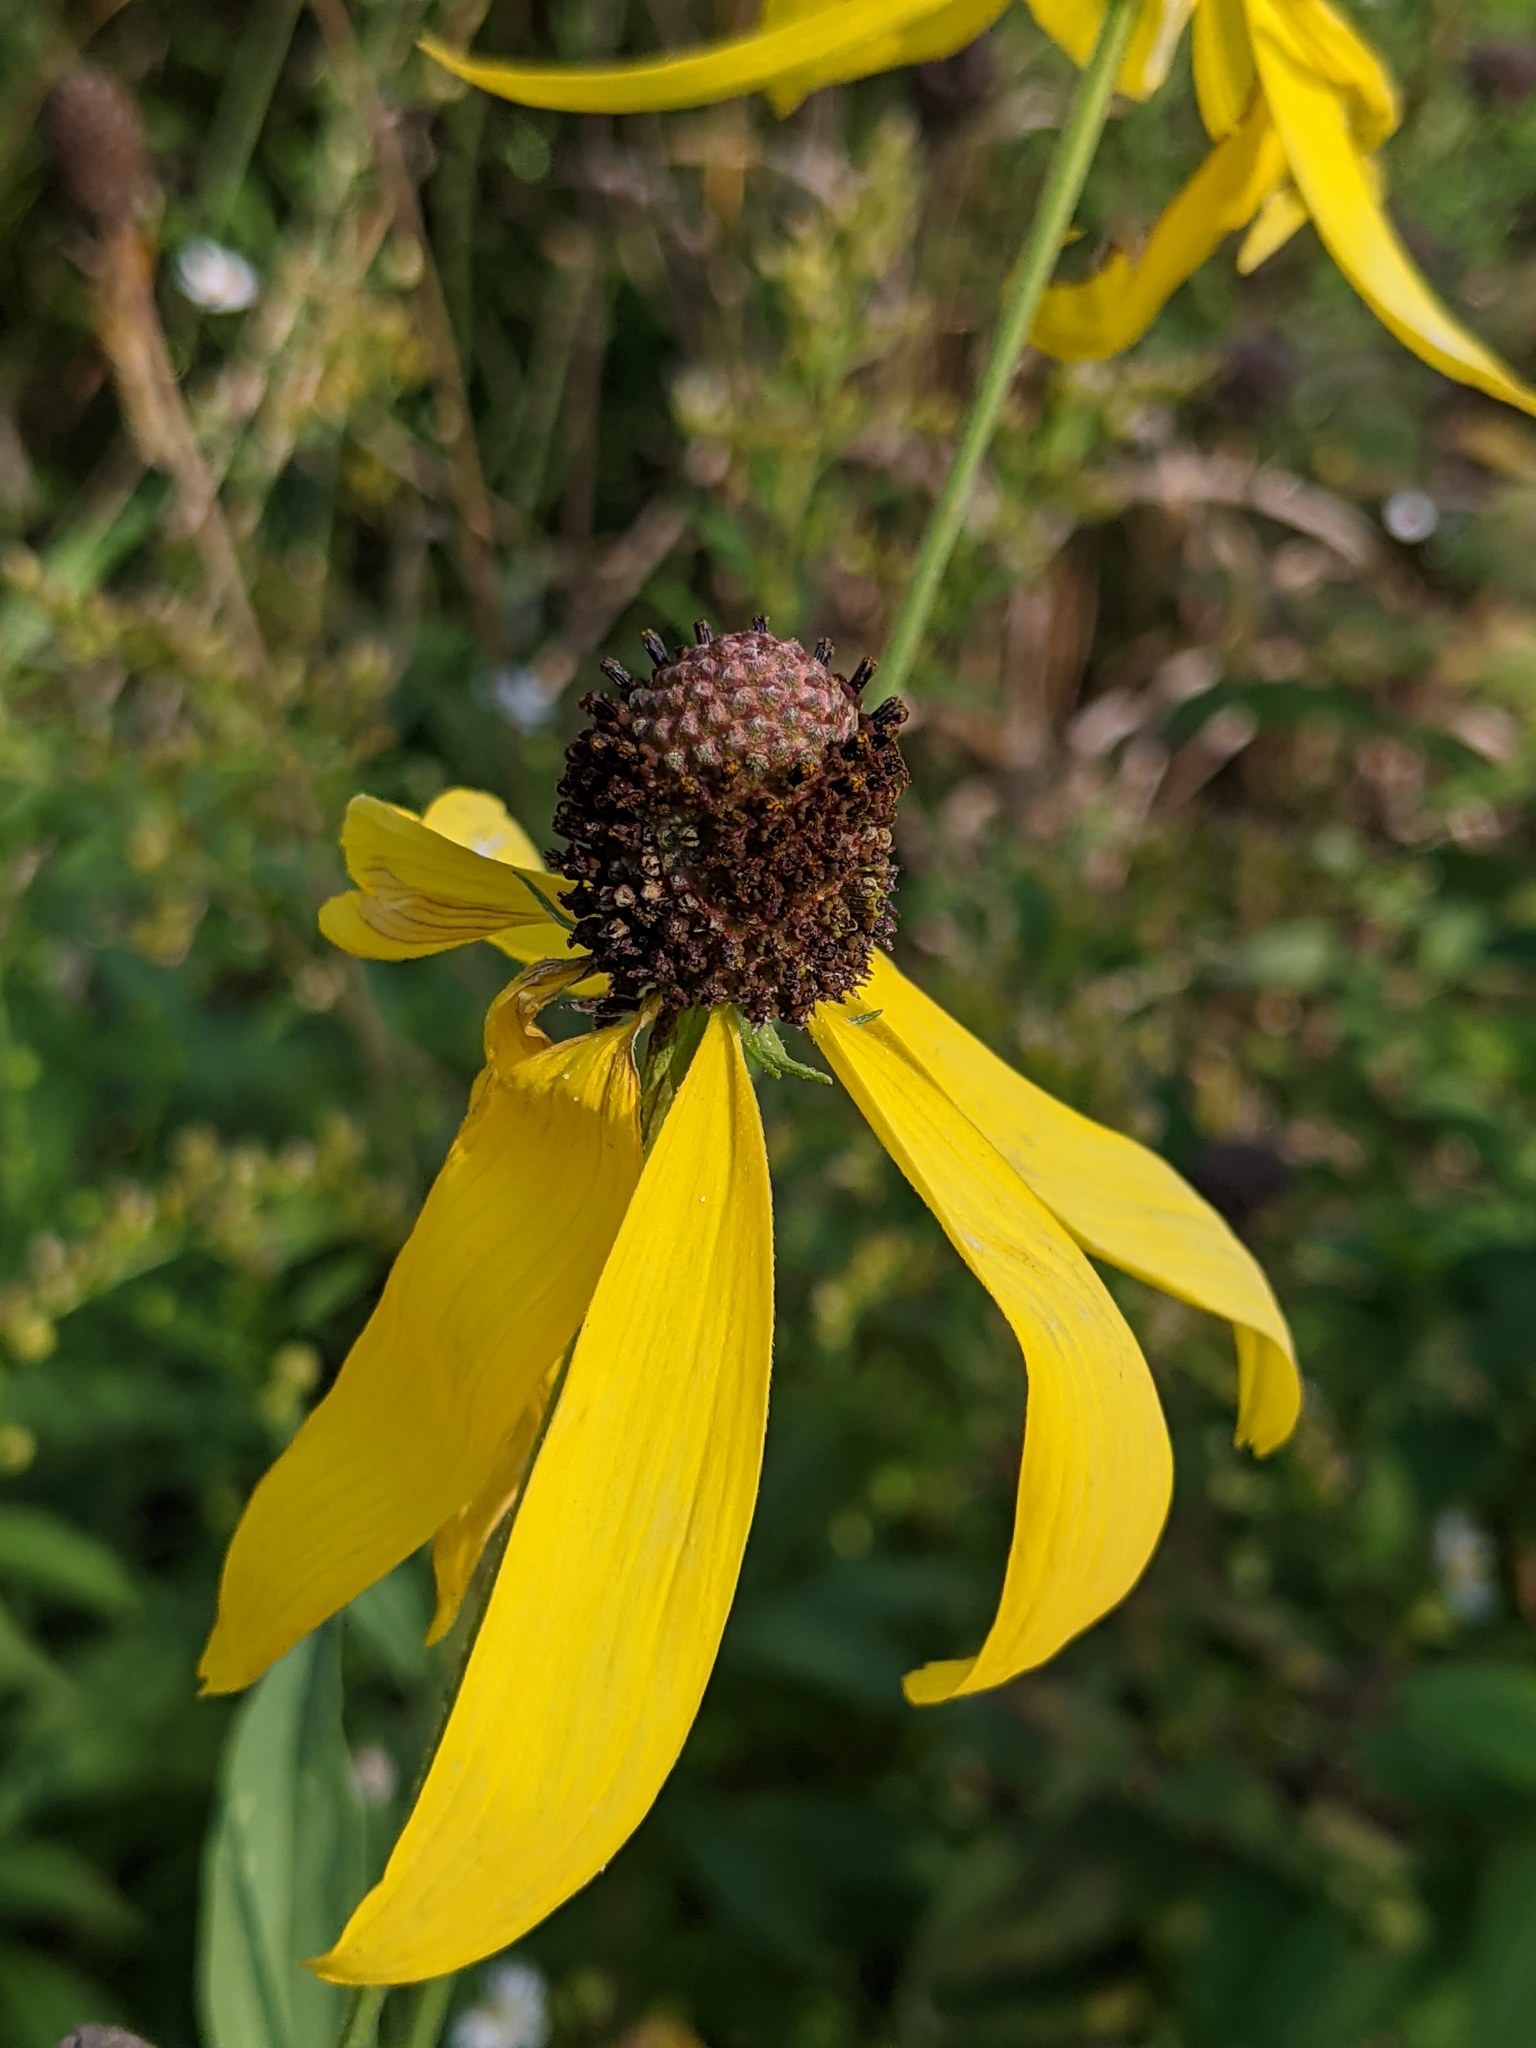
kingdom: Plantae
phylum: Tracheophyta
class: Magnoliopsida
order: Asterales
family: Asteraceae
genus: Ratibida
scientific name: Ratibida pinnata
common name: Drooping prairie-coneflower
